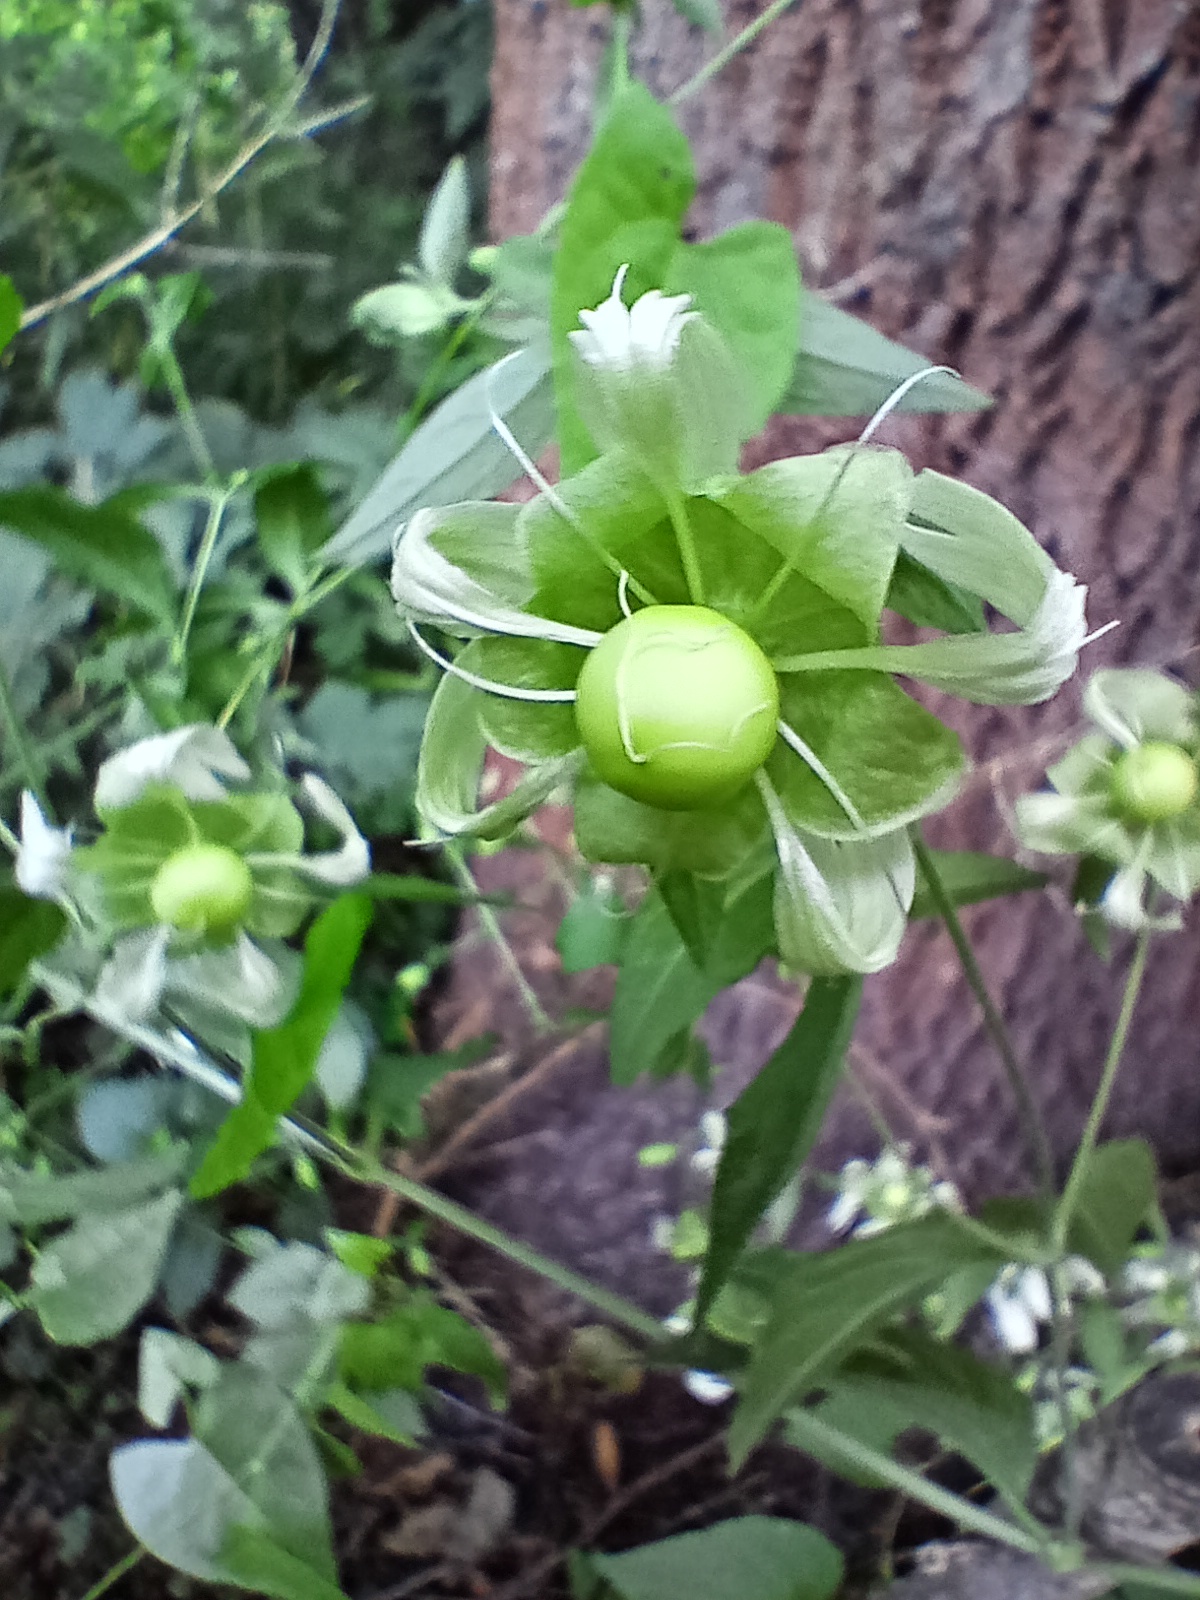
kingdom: Plantae
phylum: Tracheophyta
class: Magnoliopsida
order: Caryophyllales
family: Caryophyllaceae
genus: Silene
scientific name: Silene baccifera
